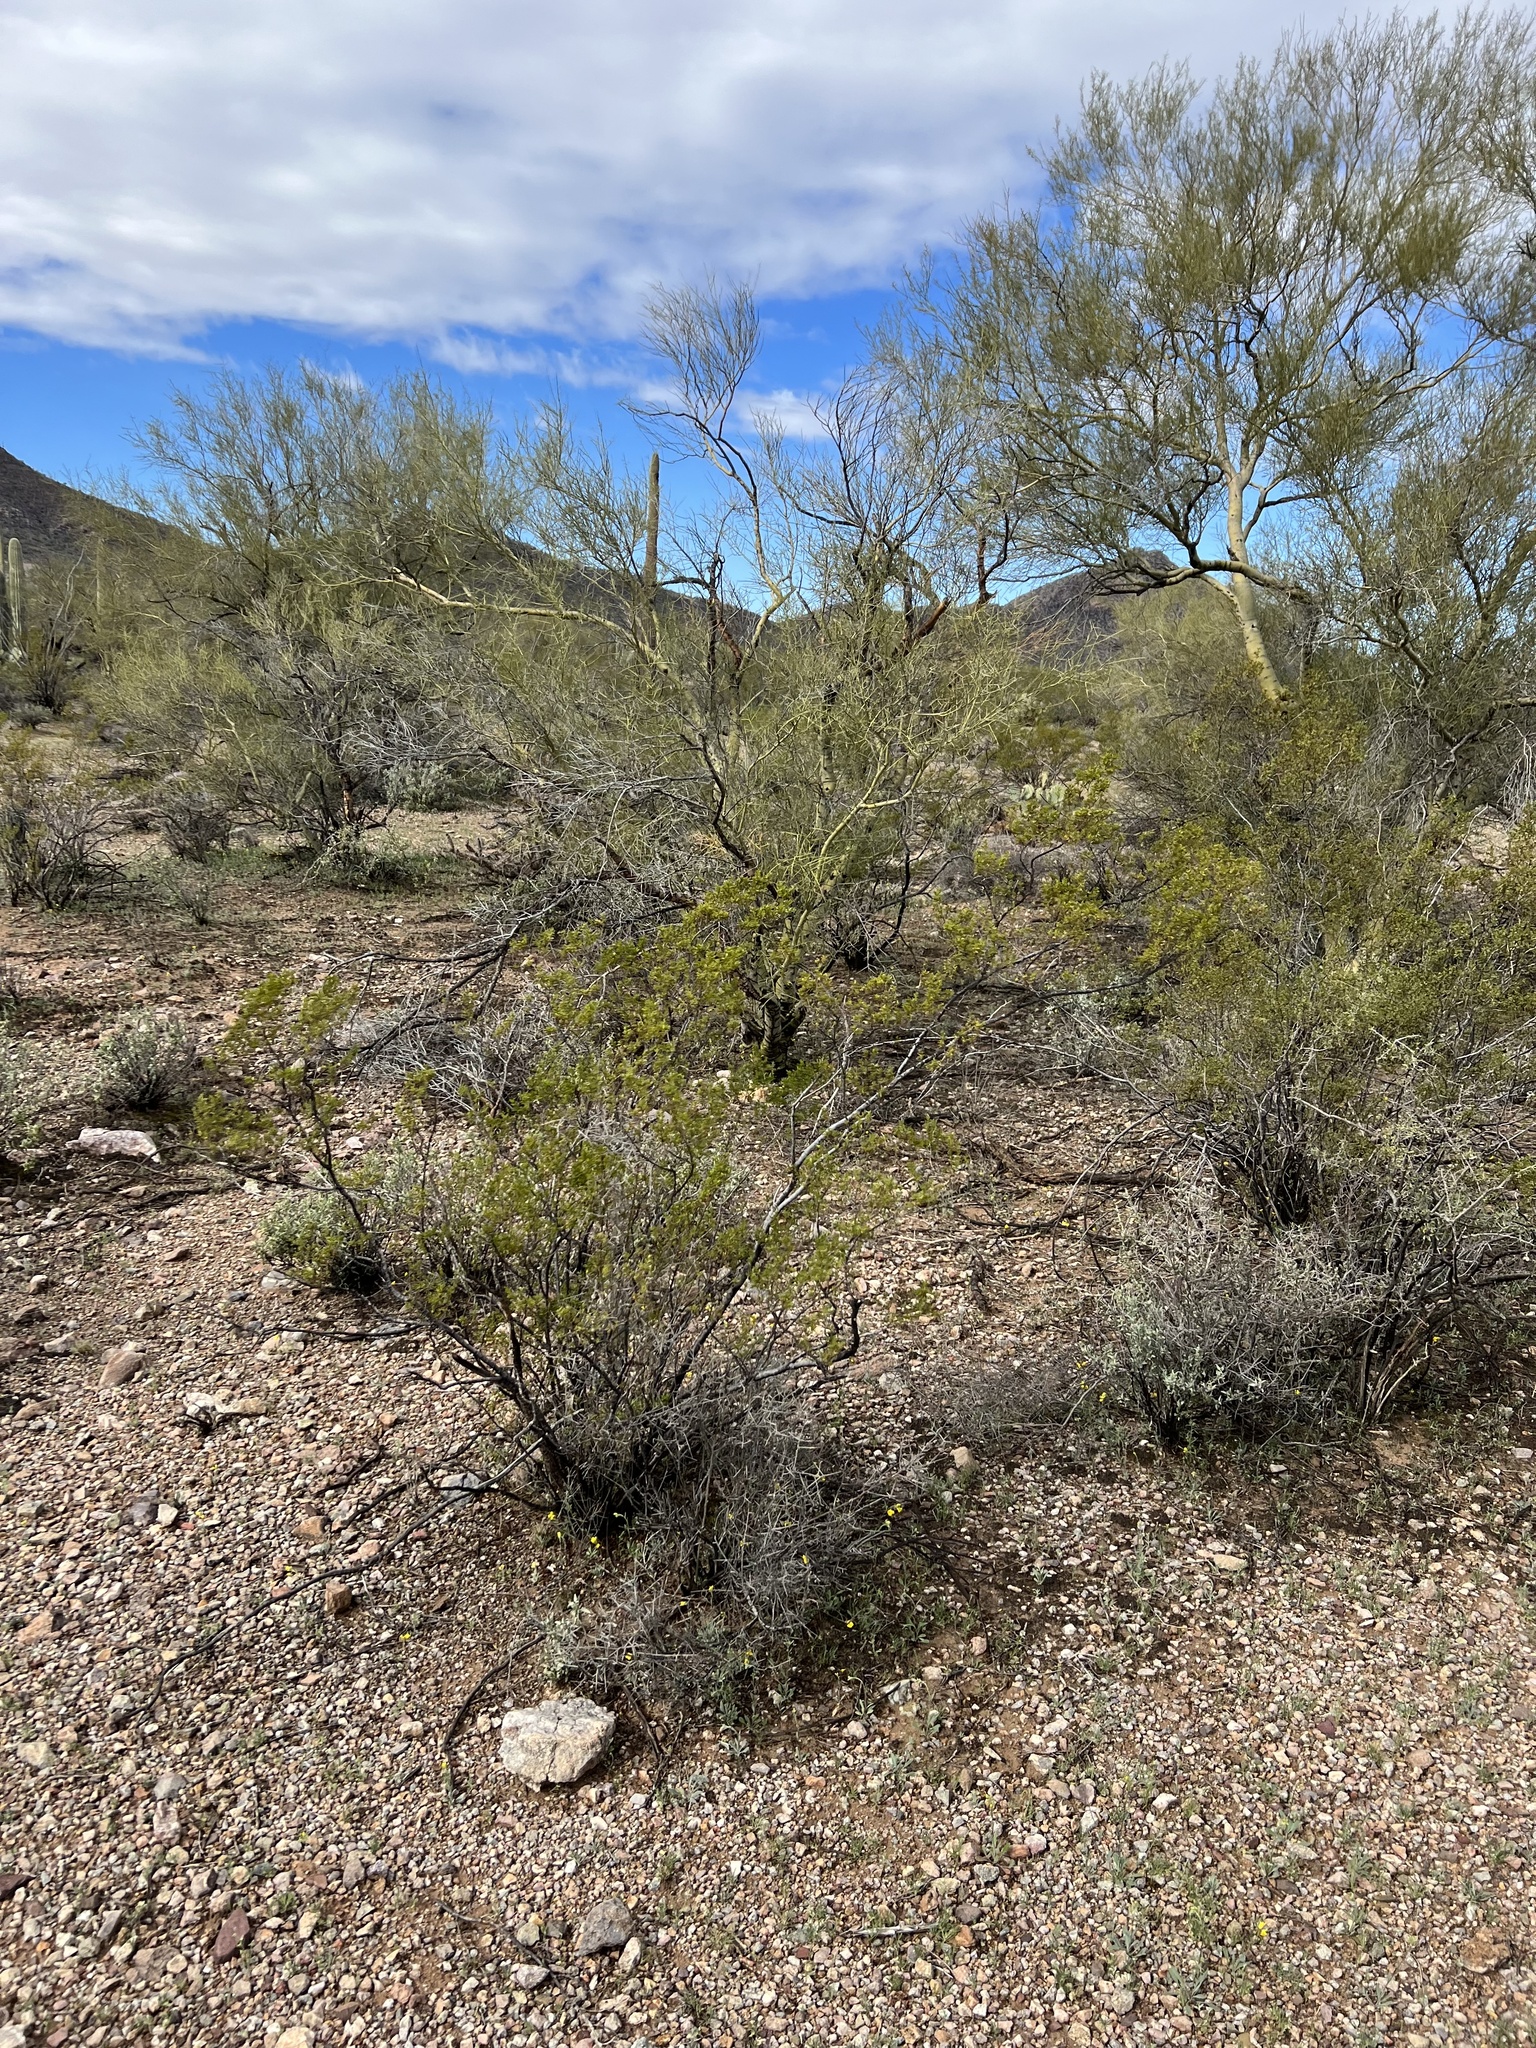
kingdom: Plantae
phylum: Tracheophyta
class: Magnoliopsida
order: Zygophyllales
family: Zygophyllaceae
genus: Larrea
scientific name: Larrea tridentata
